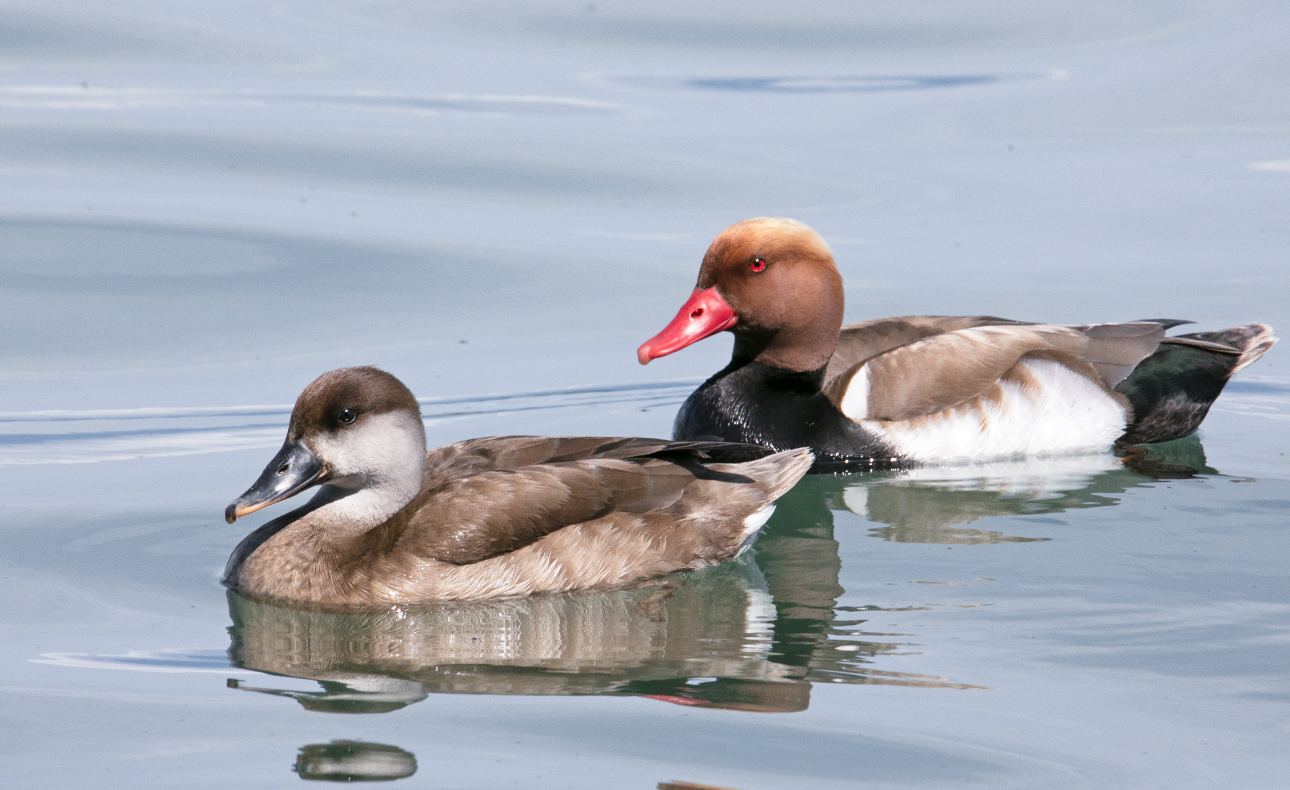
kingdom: Animalia
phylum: Chordata
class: Aves
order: Anseriformes
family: Anatidae
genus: Netta
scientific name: Netta rufina
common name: Red-crested pochard
